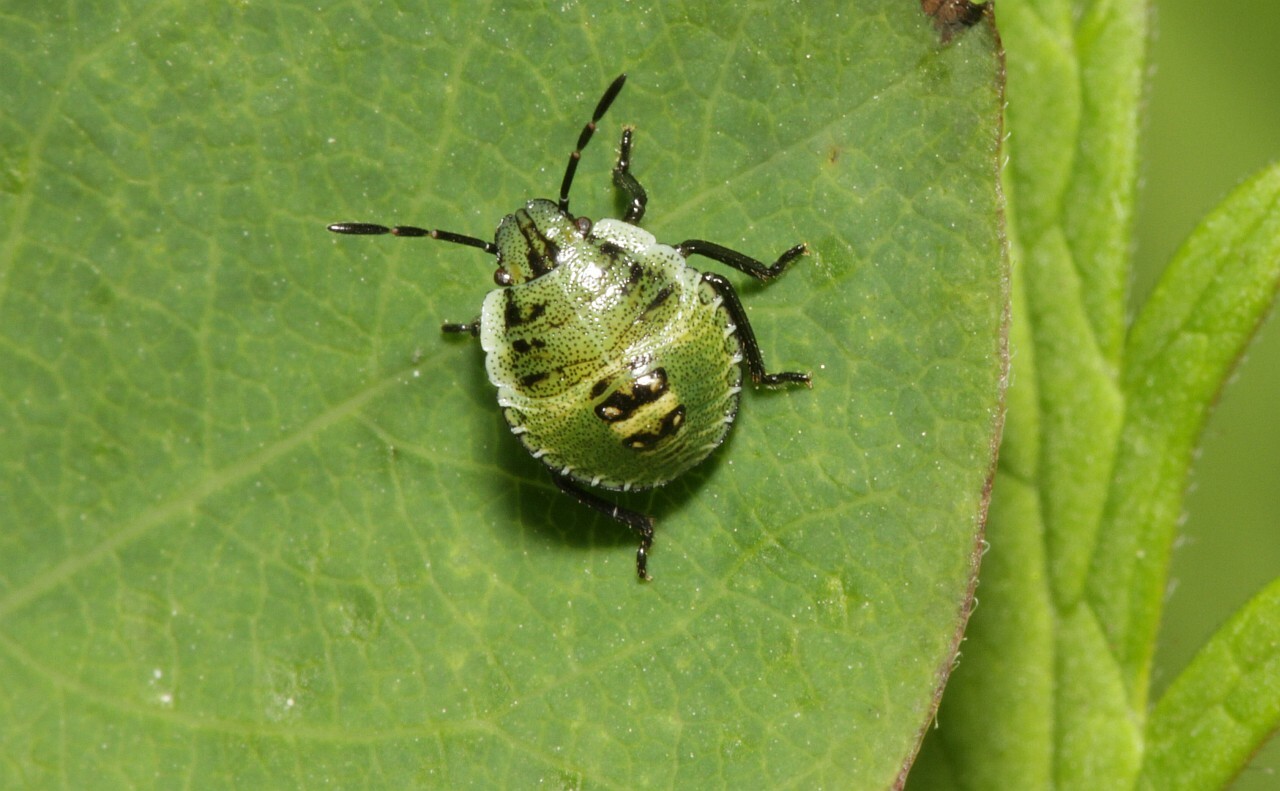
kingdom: Animalia
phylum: Arthropoda
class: Insecta
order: Hemiptera
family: Pentatomidae
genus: Palomena
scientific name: Palomena prasina
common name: Green shieldbug
